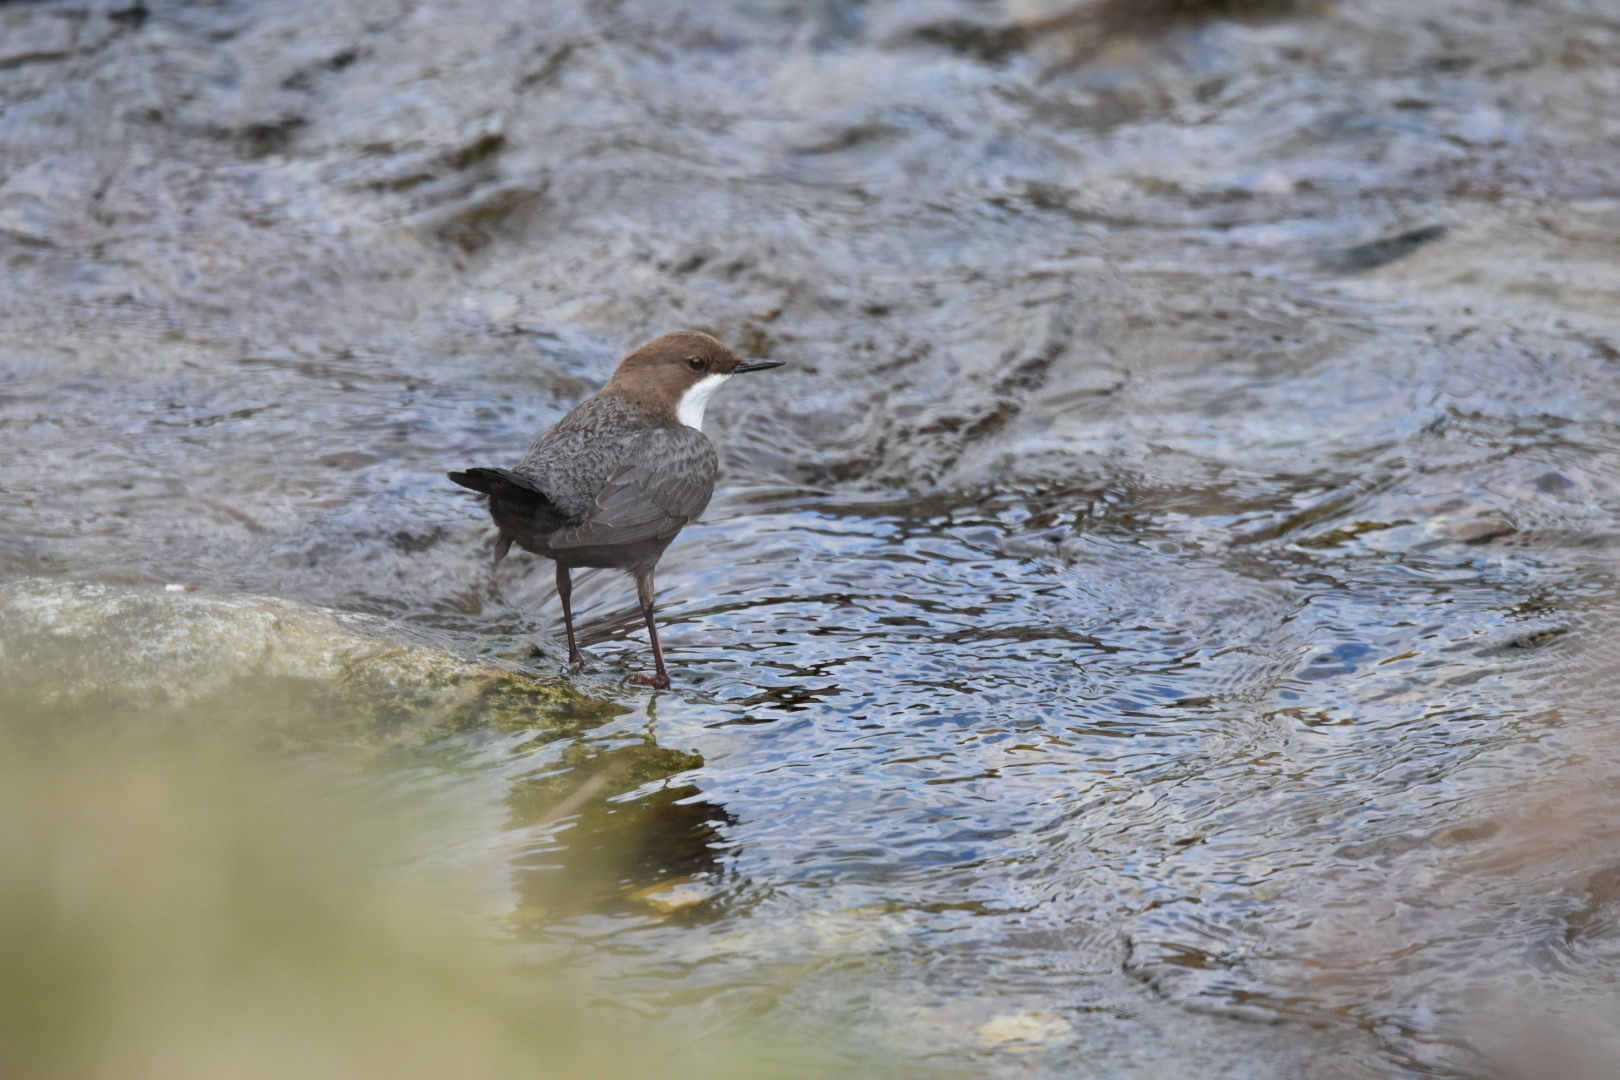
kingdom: Animalia
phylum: Chordata
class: Aves
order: Passeriformes
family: Cinclidae
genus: Cinclus
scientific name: Cinclus cinclus
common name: White-throated dipper
